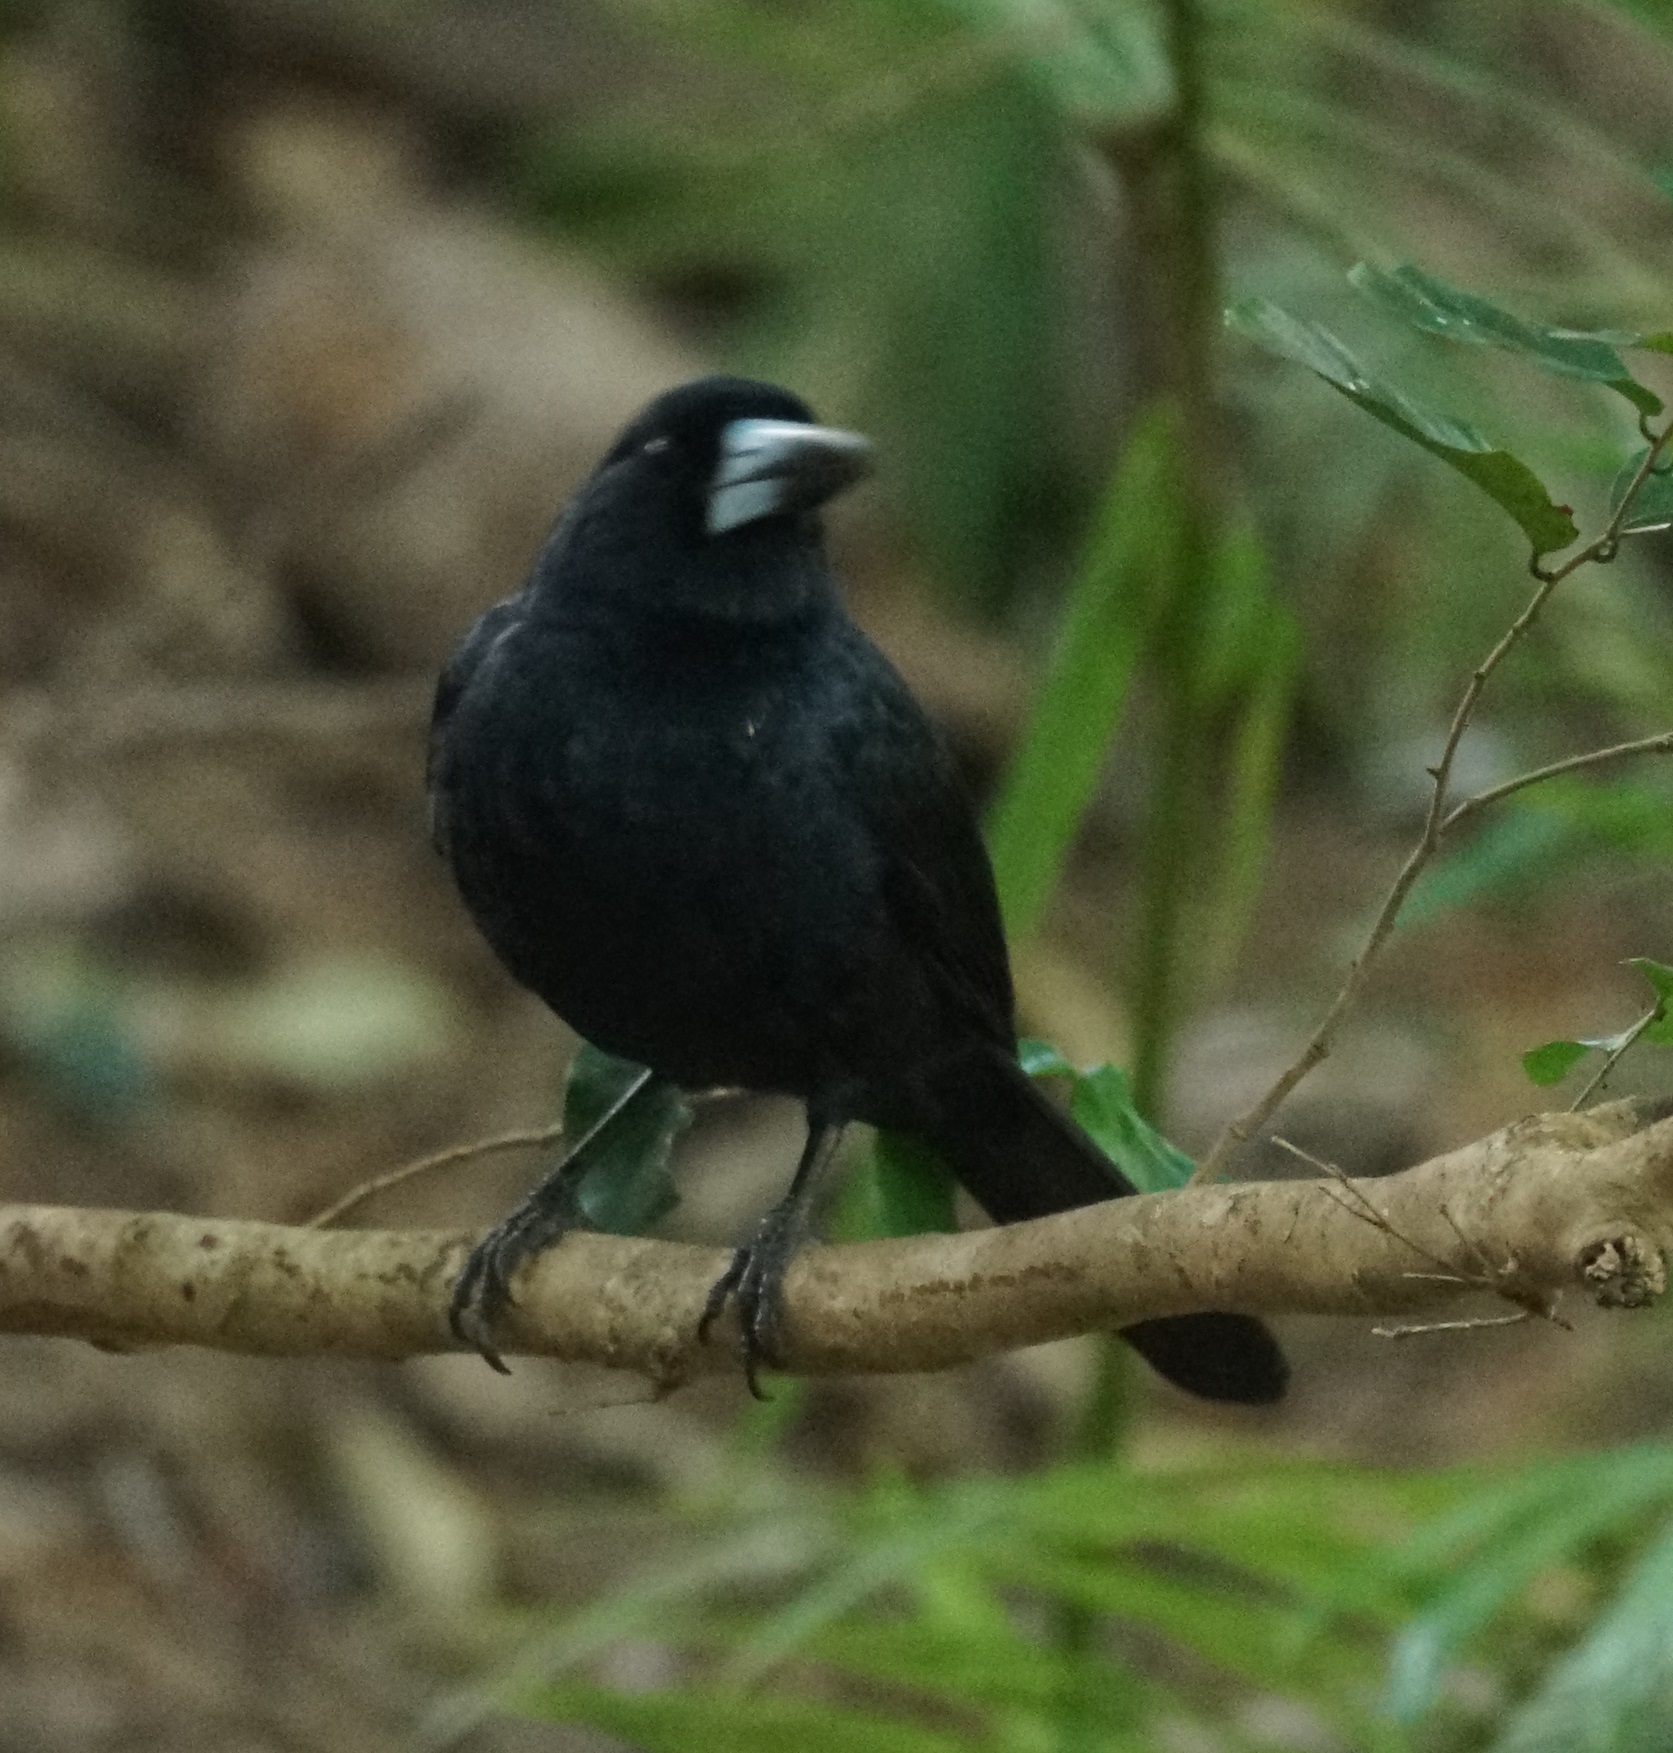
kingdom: Animalia
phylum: Chordata
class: Aves
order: Passeriformes
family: Artamidae
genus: Melloria
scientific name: Melloria quoyi
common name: Black butcherbird
